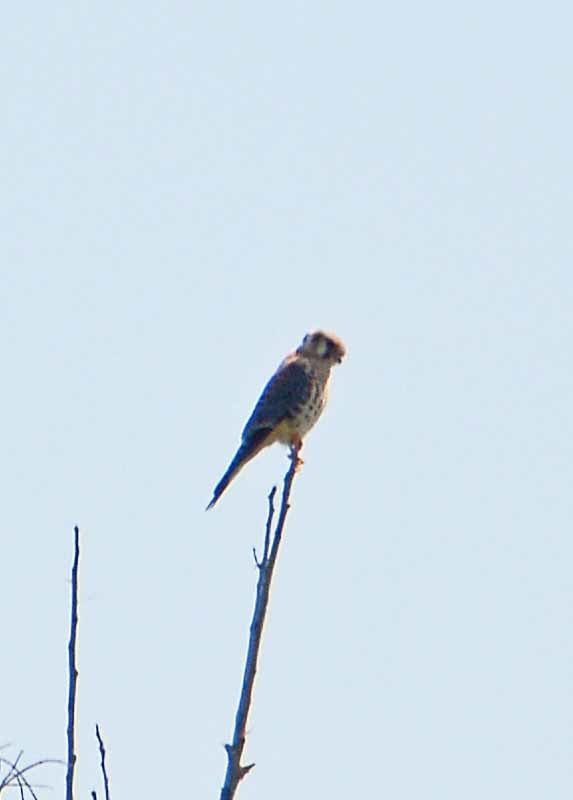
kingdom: Animalia
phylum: Chordata
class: Aves
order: Falconiformes
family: Falconidae
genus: Falco
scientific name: Falco sparverius
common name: American kestrel
